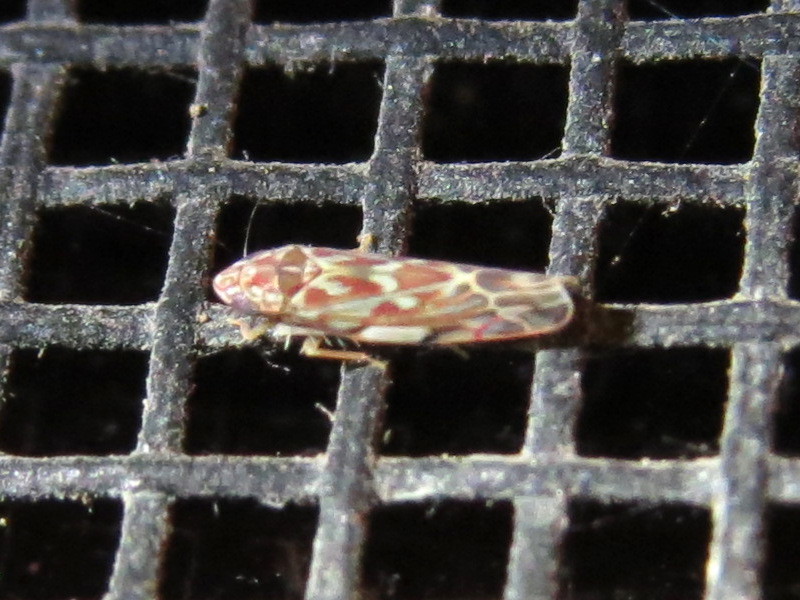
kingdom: Animalia
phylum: Arthropoda
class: Insecta
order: Hemiptera
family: Cicadellidae
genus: Erasmoneura
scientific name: Erasmoneura vulnerata
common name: The wounded leafhopper
